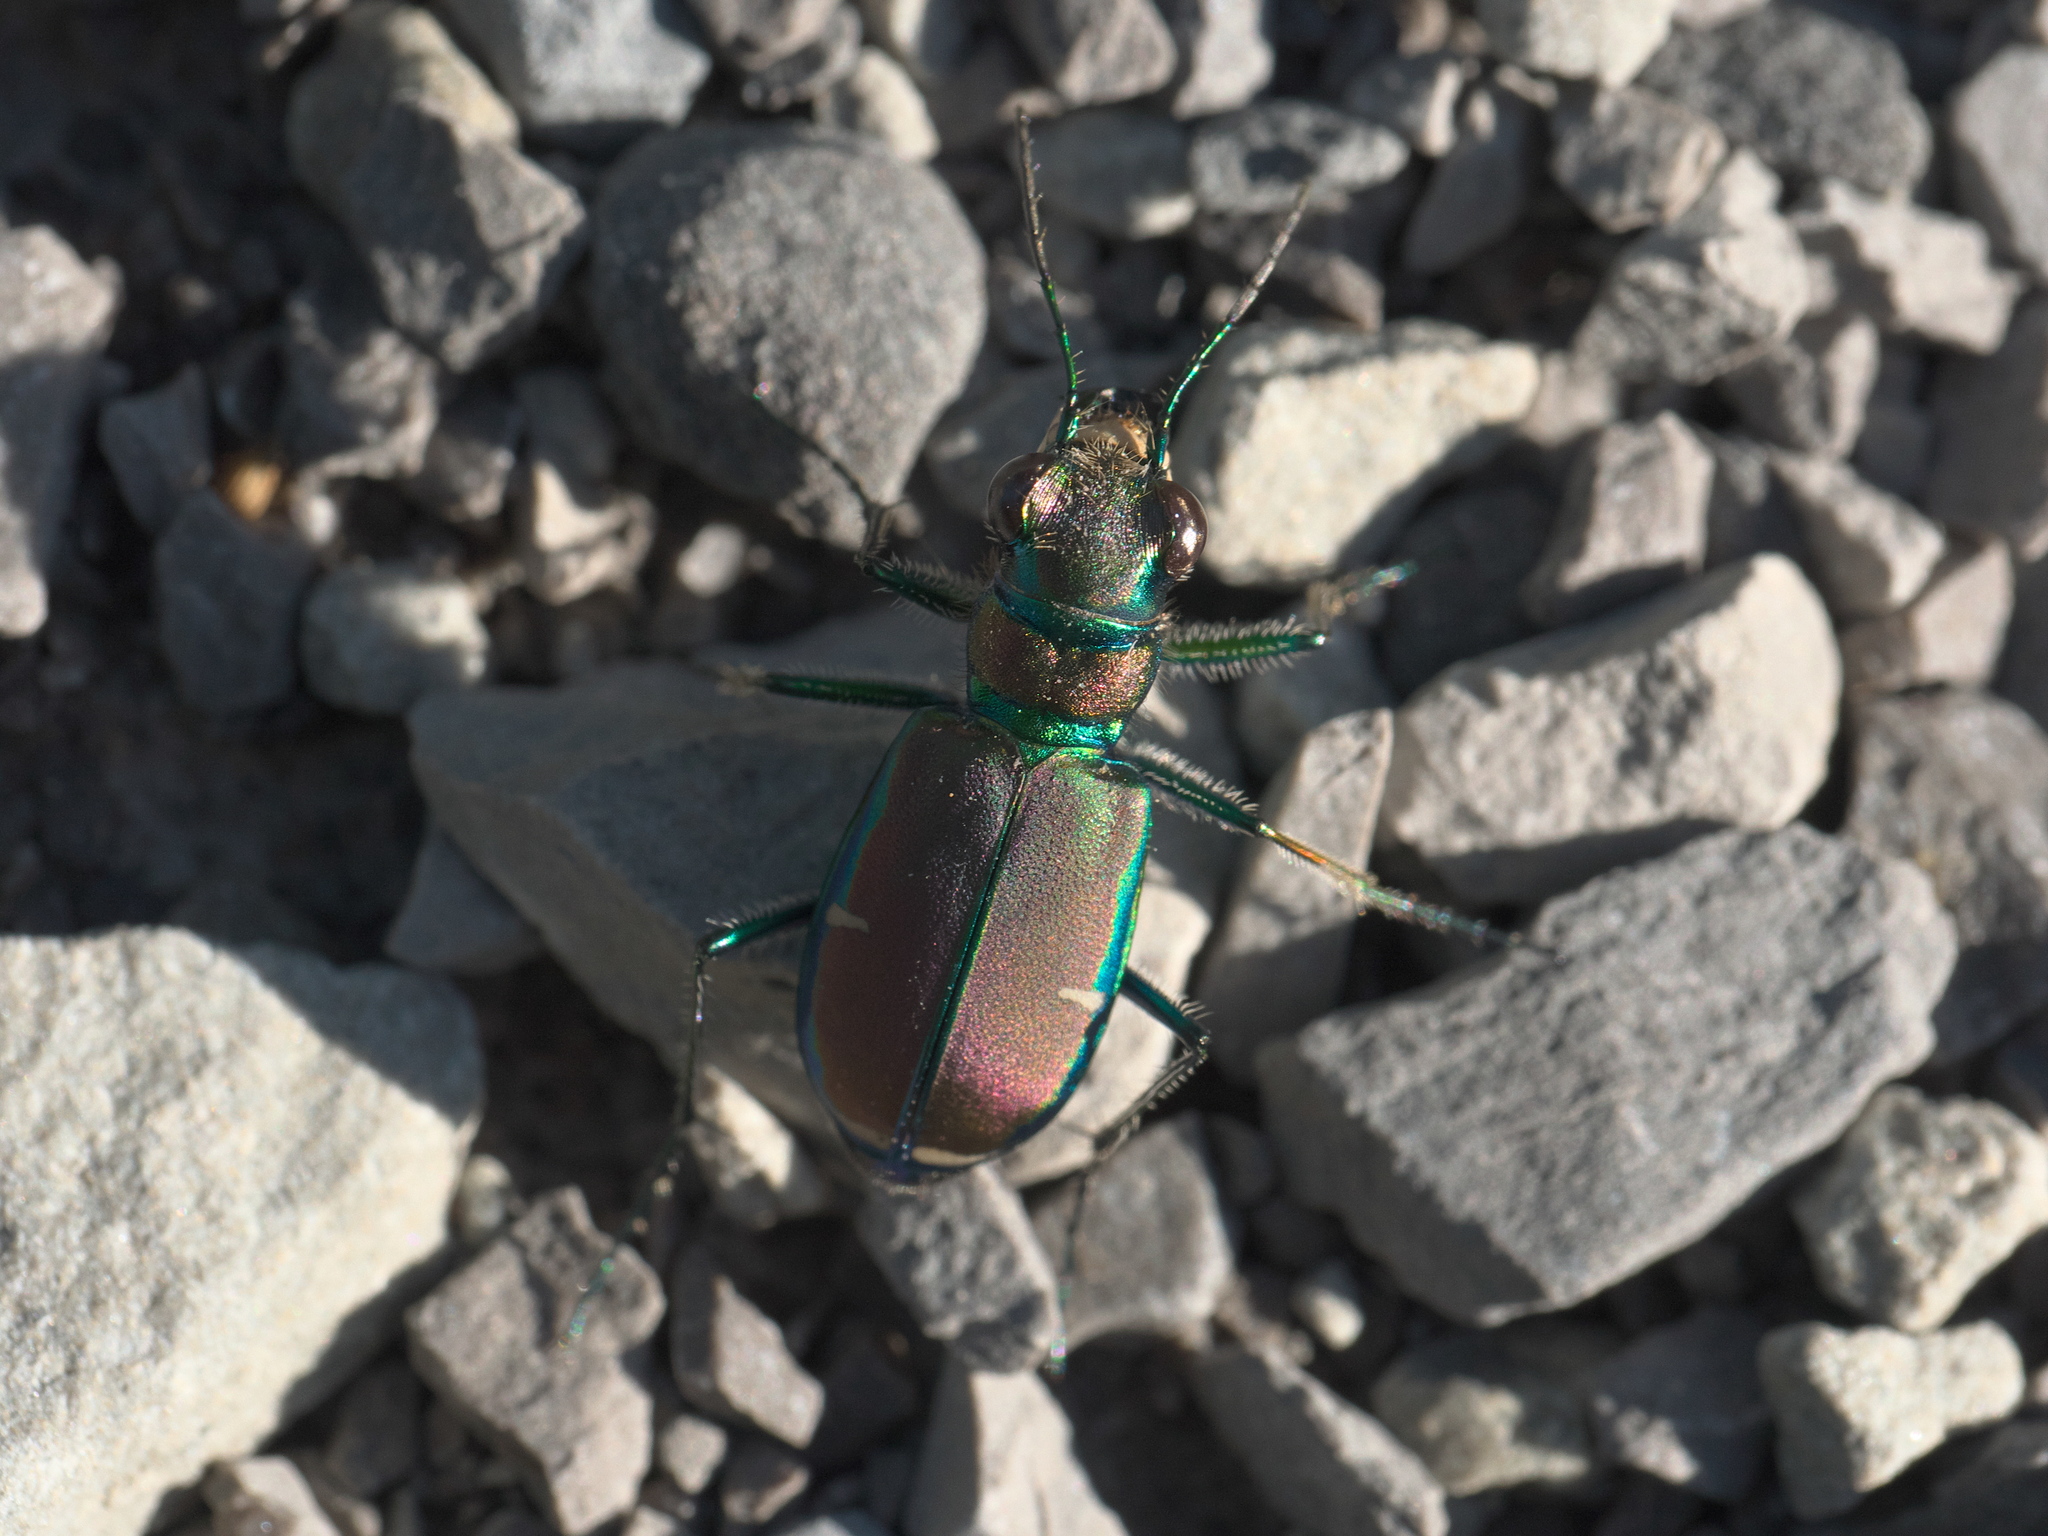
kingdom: Animalia
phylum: Arthropoda
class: Insecta
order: Coleoptera
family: Carabidae
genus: Cicindela
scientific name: Cicindela limbalis
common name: Common claybank tiger beetle
